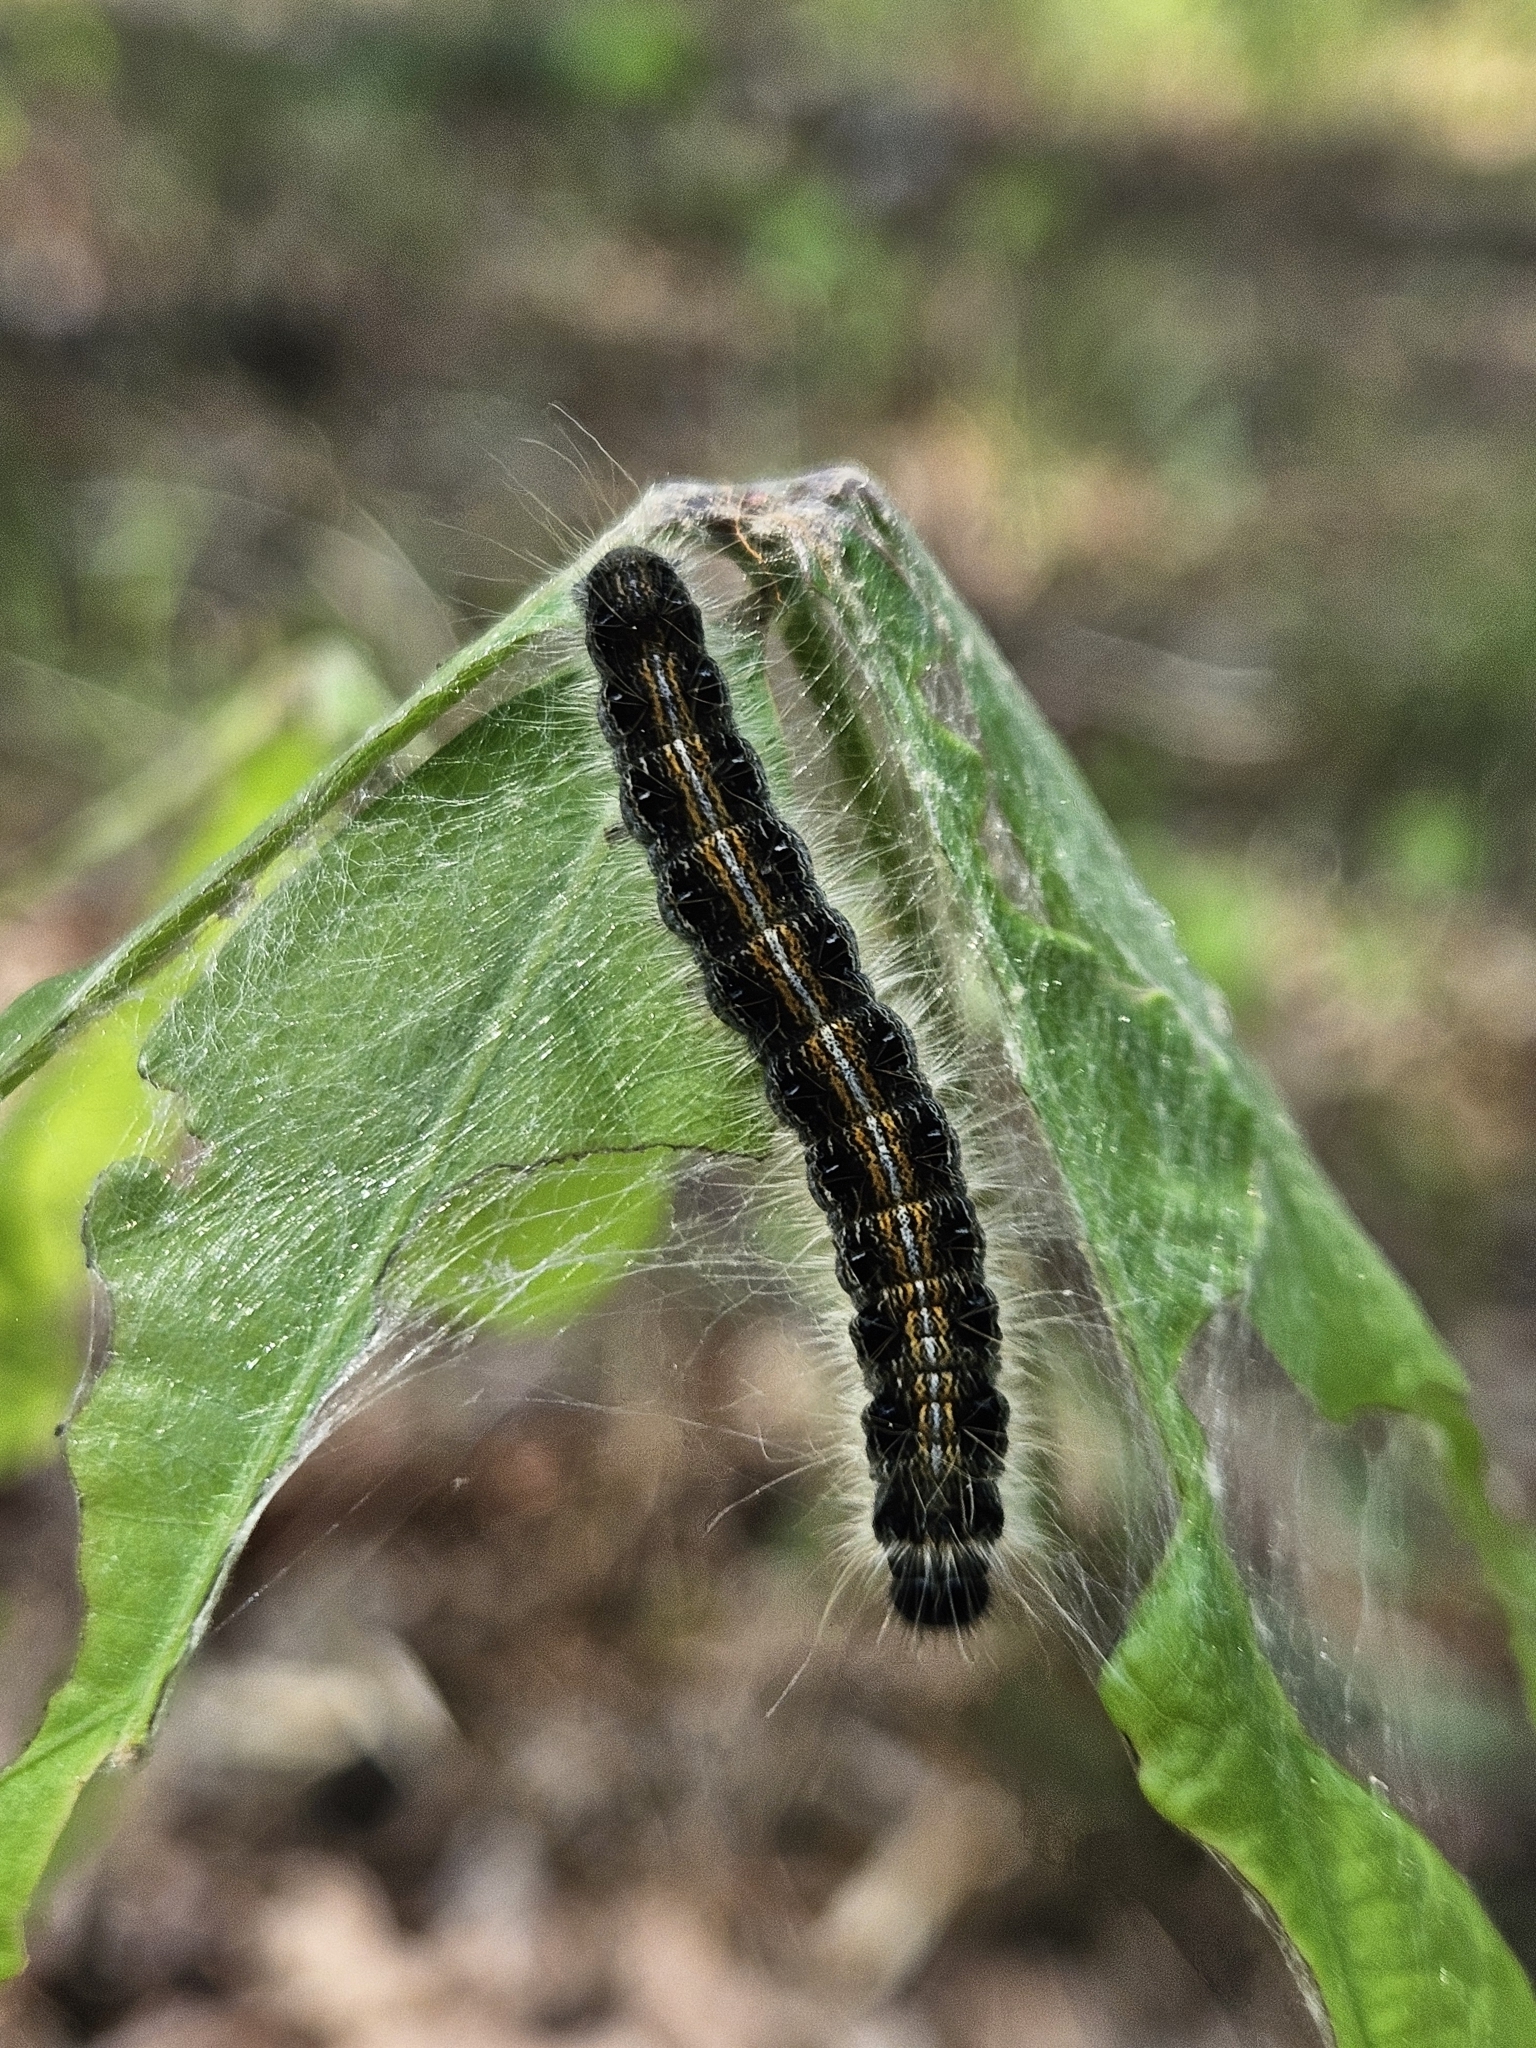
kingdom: Animalia
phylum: Arthropoda
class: Insecta
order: Lepidoptera
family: Lasiocampidae
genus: Malacosoma
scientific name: Malacosoma americana
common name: Eastern tent caterpillar moth
